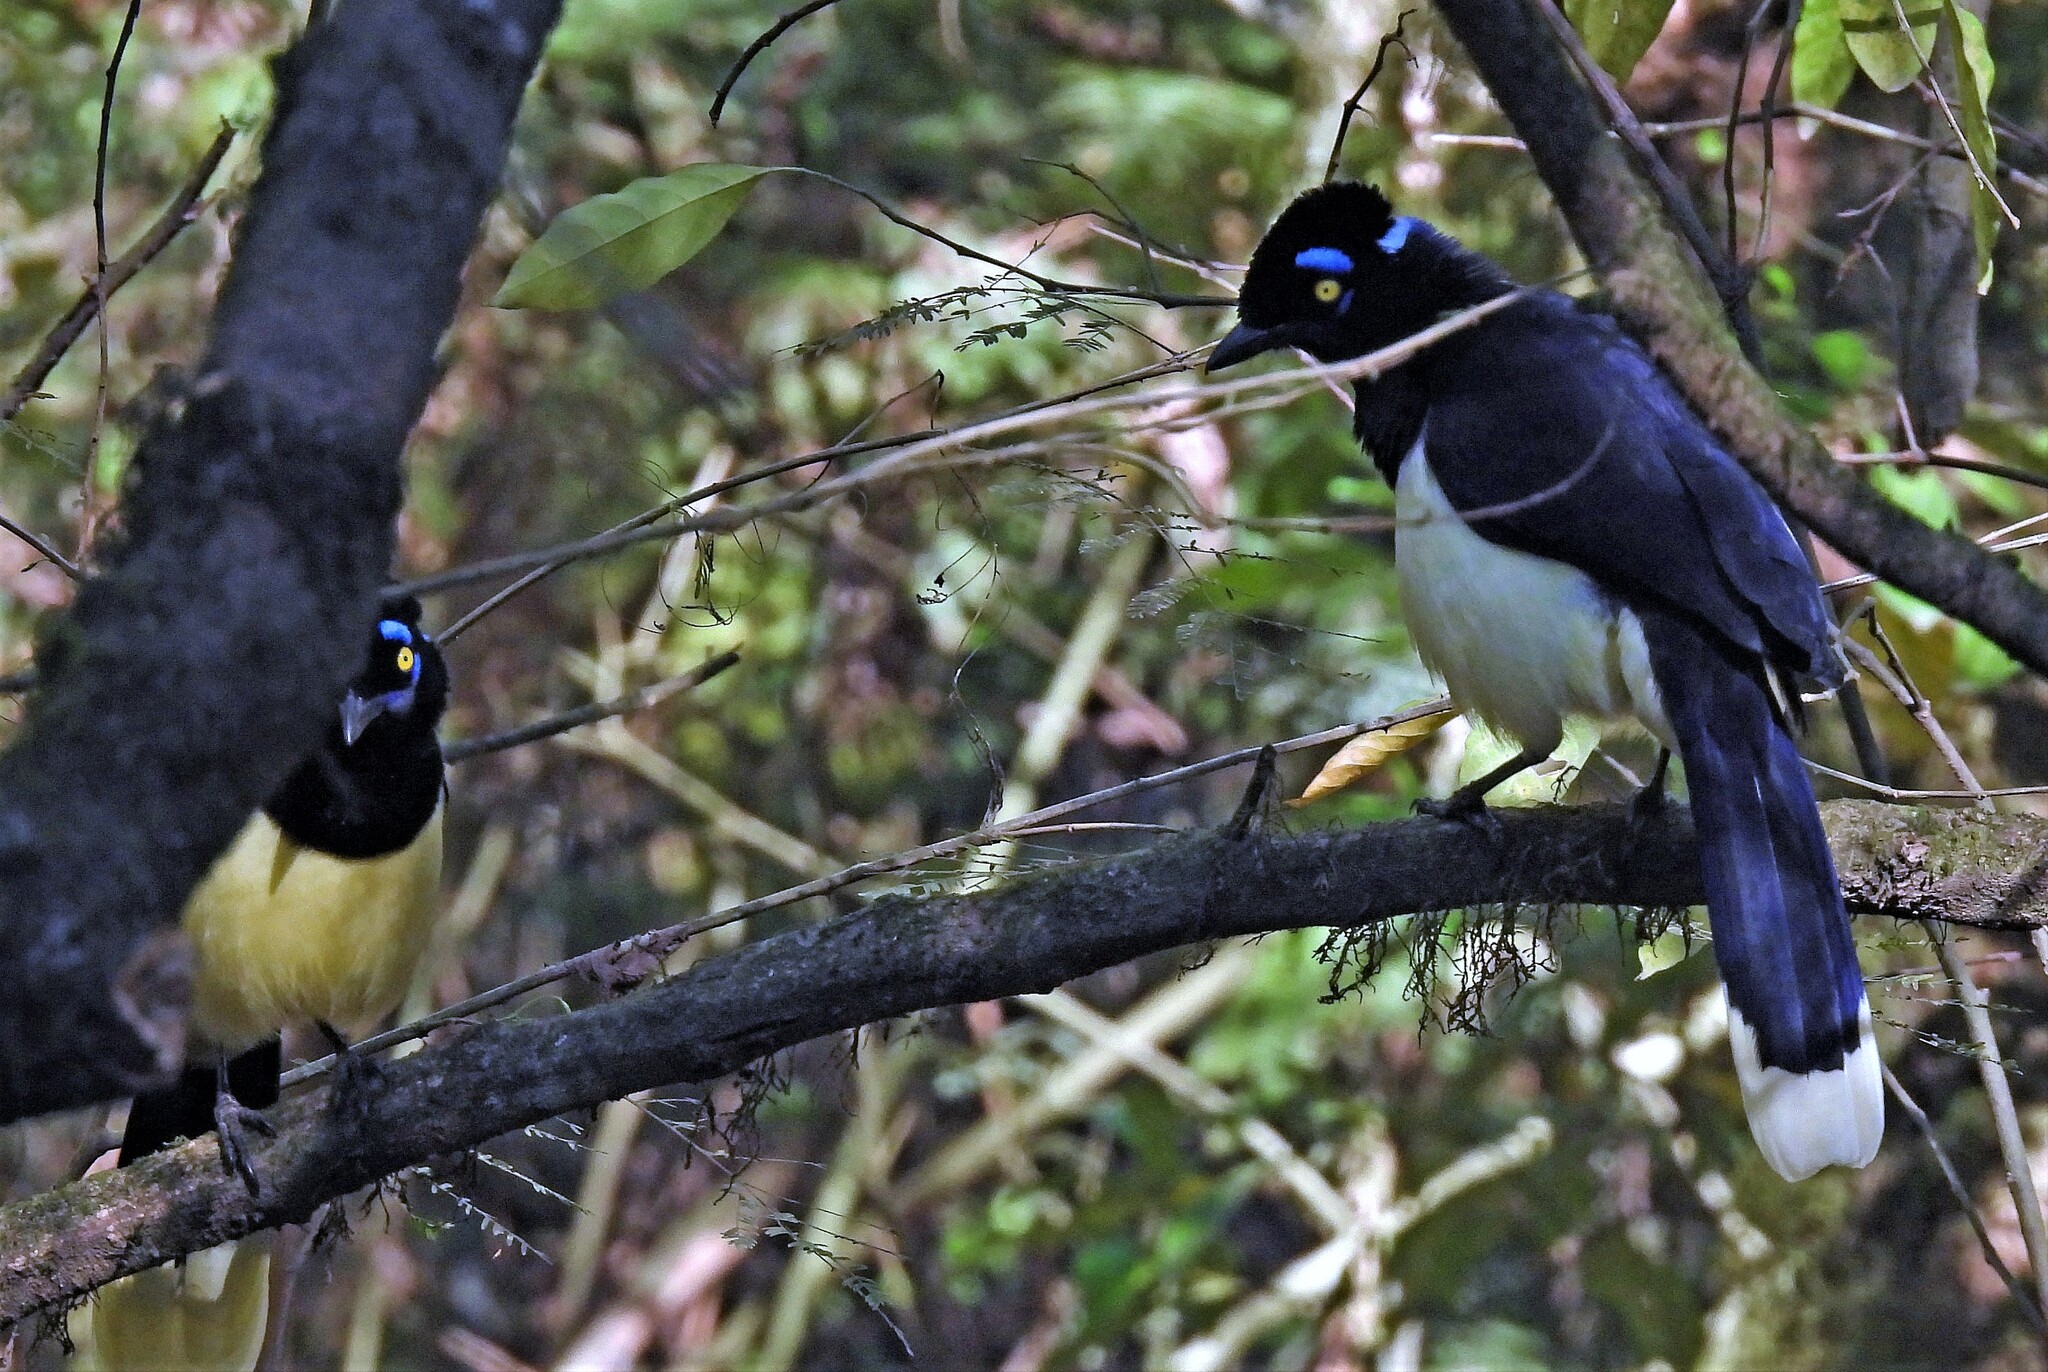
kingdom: Animalia
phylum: Chordata
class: Aves
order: Passeriformes
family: Corvidae
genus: Cyanocorax
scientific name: Cyanocorax chrysops
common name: Plush-crested jay
